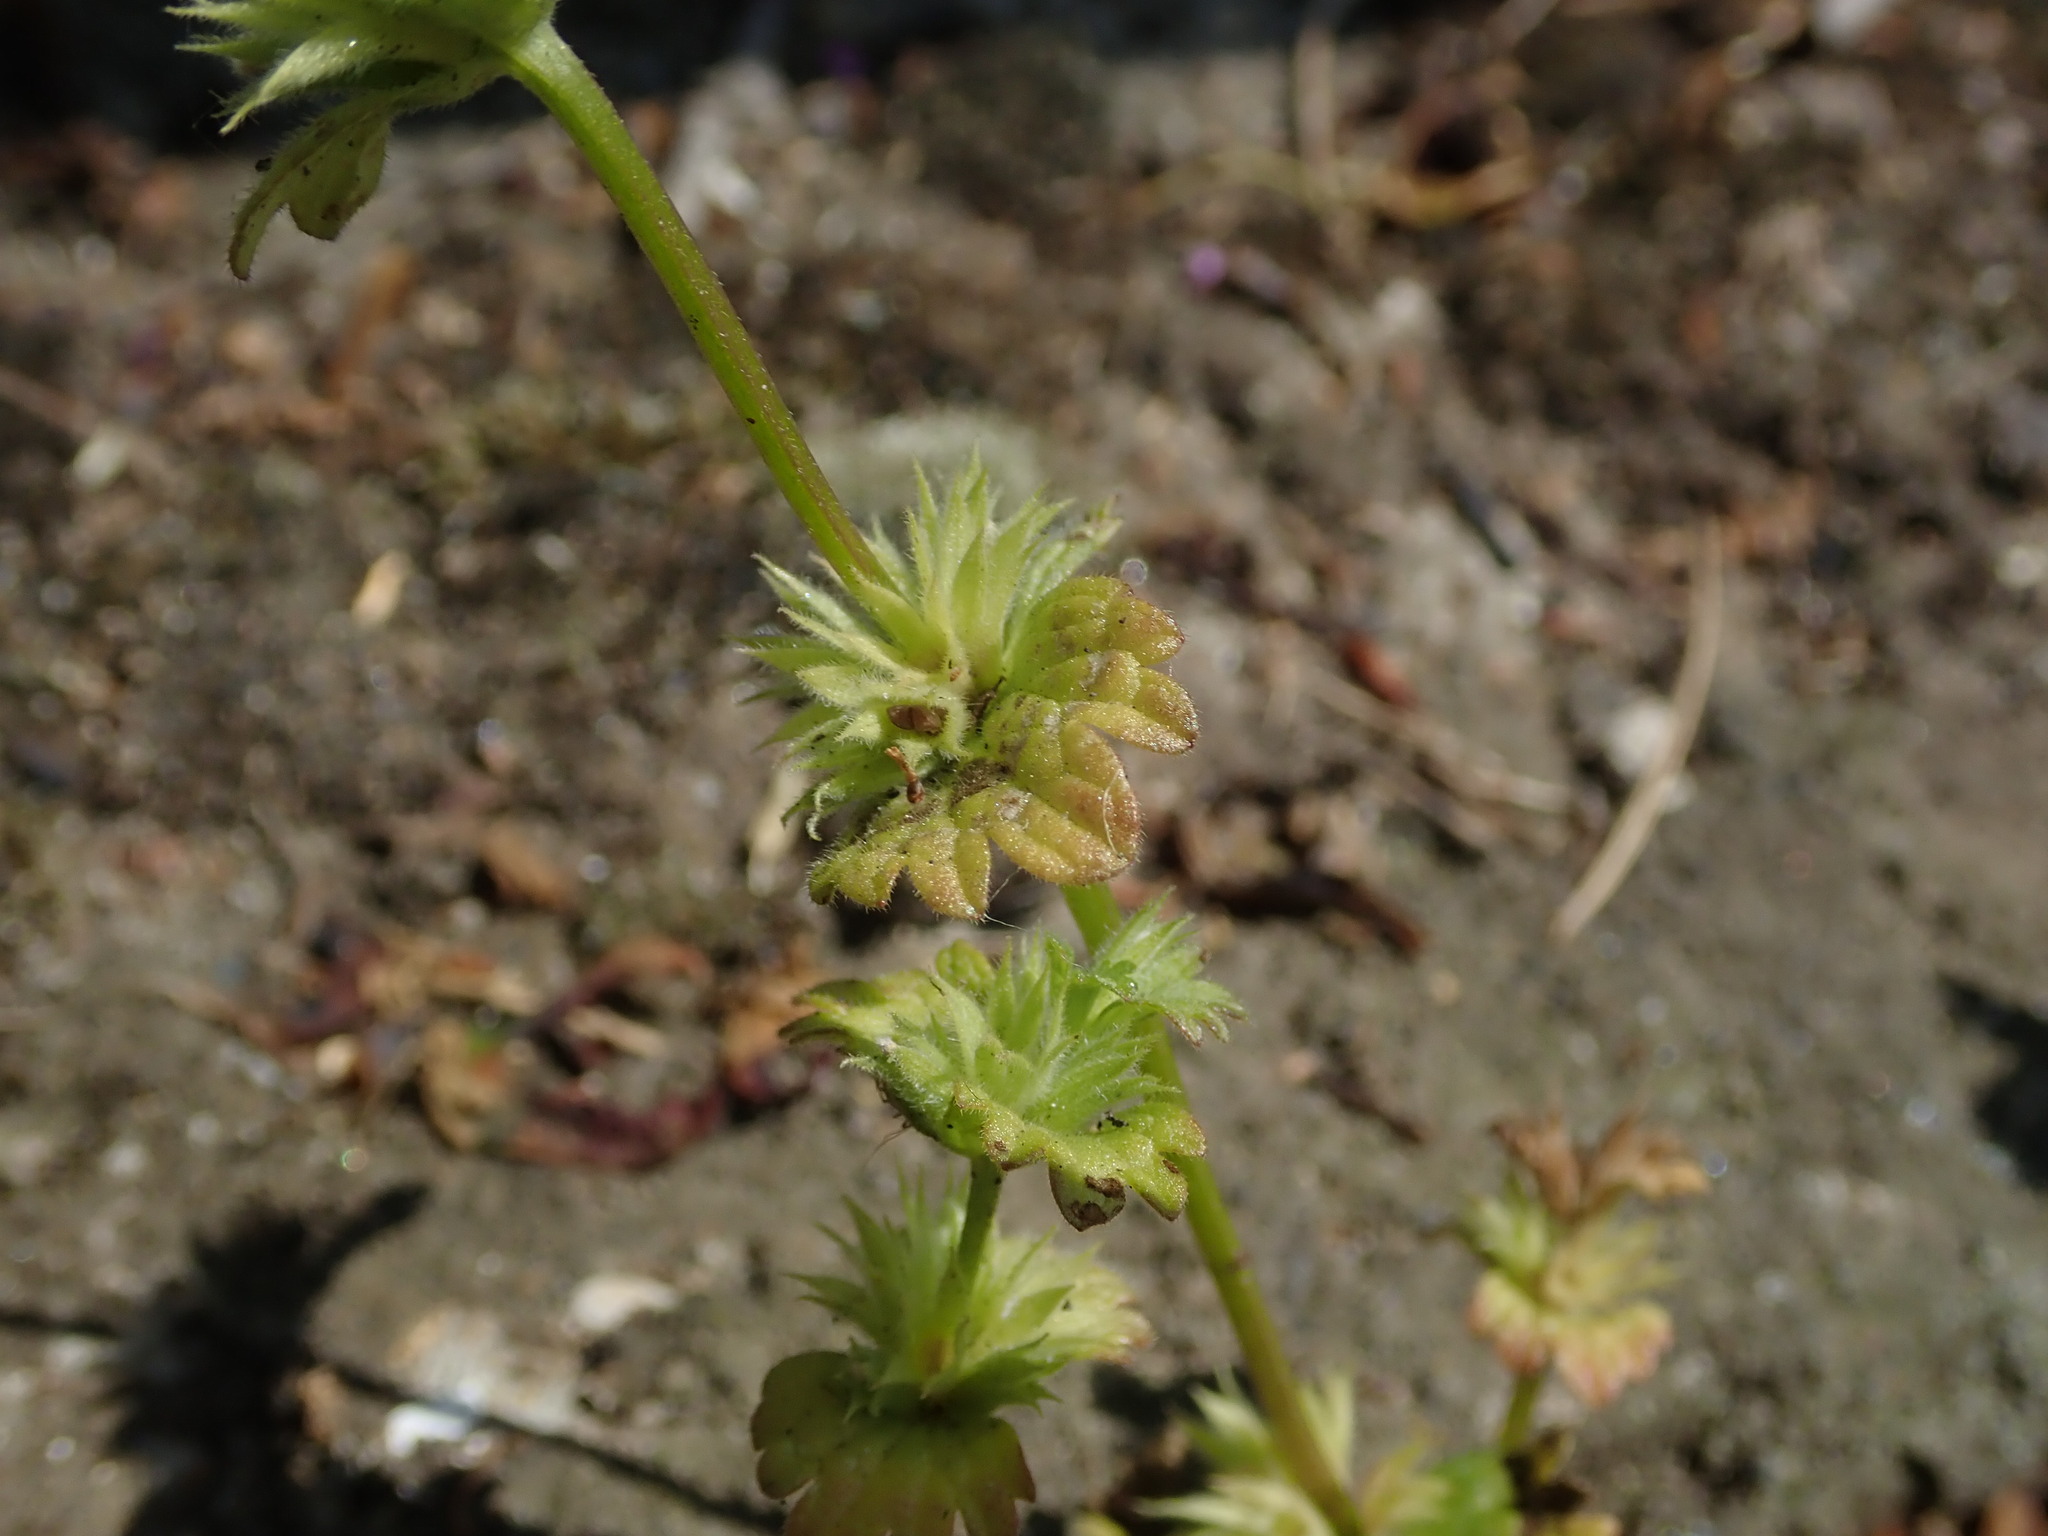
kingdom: Plantae
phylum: Tracheophyta
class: Magnoliopsida
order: Lamiales
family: Lamiaceae
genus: Lamium
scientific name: Lamium amplexicaule
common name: Henbit dead-nettle
